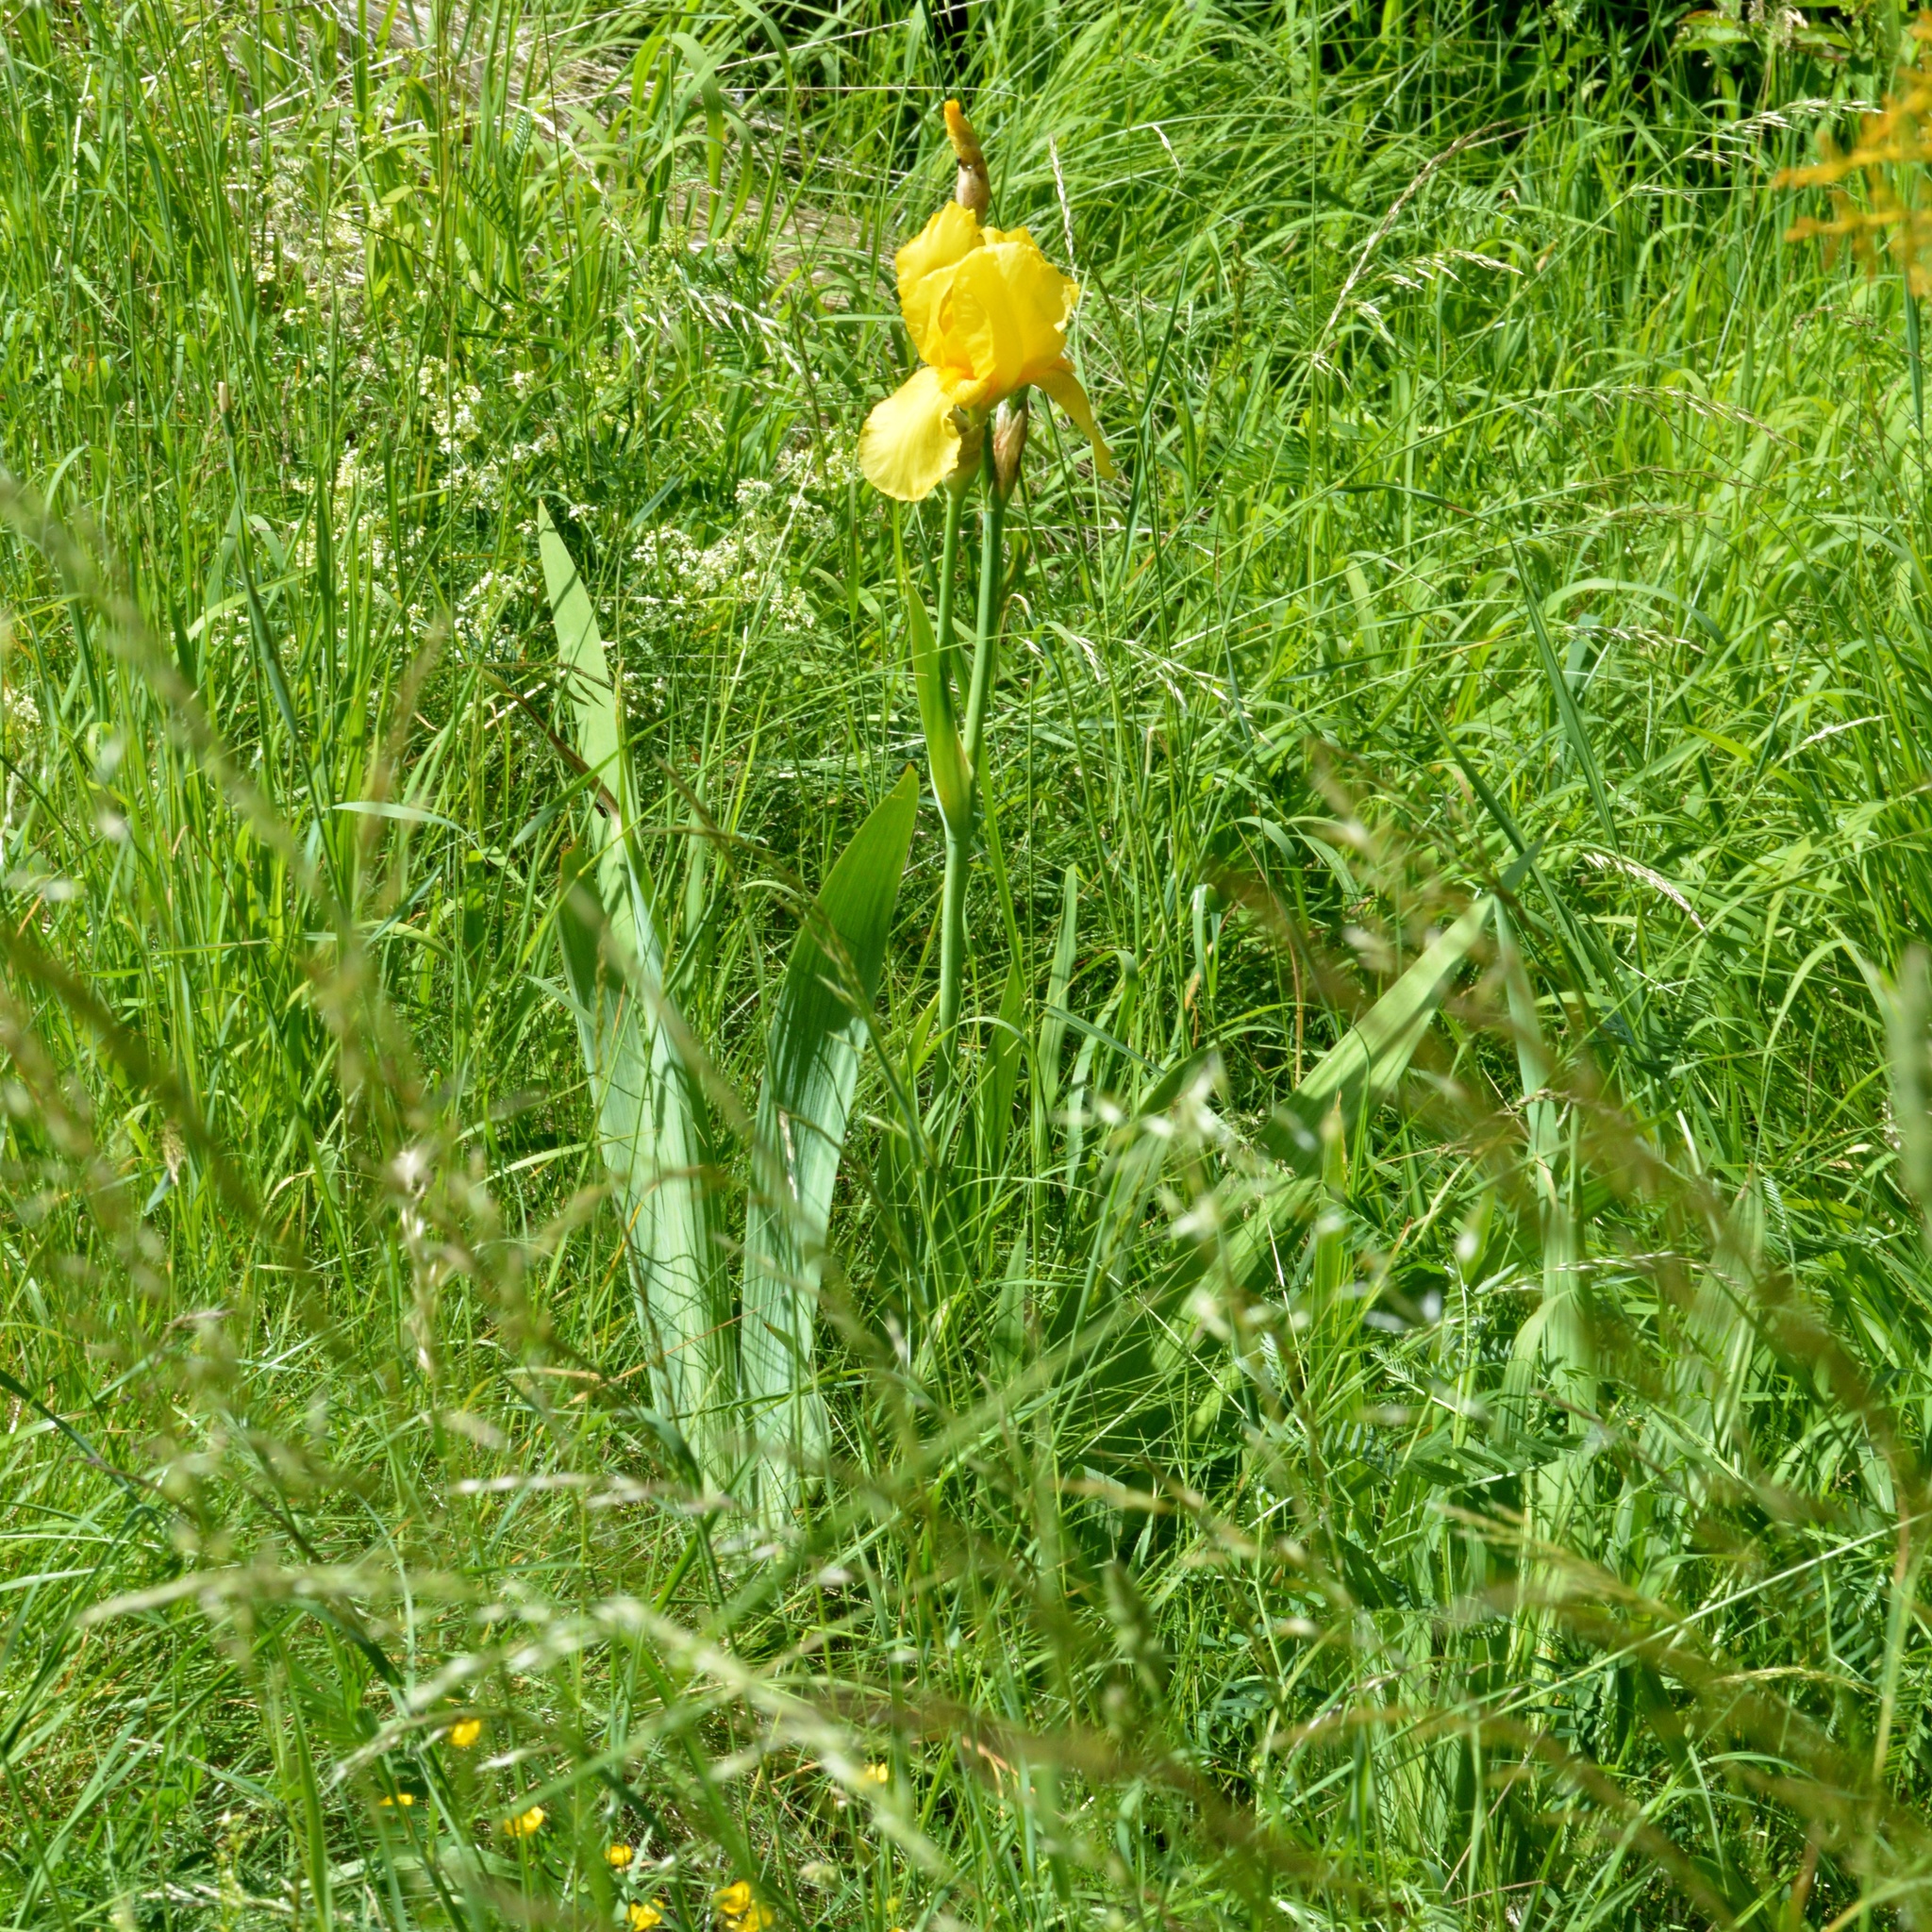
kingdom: Plantae
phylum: Tracheophyta
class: Liliopsida
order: Asparagales
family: Iridaceae
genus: Iris
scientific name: Iris hybrida
